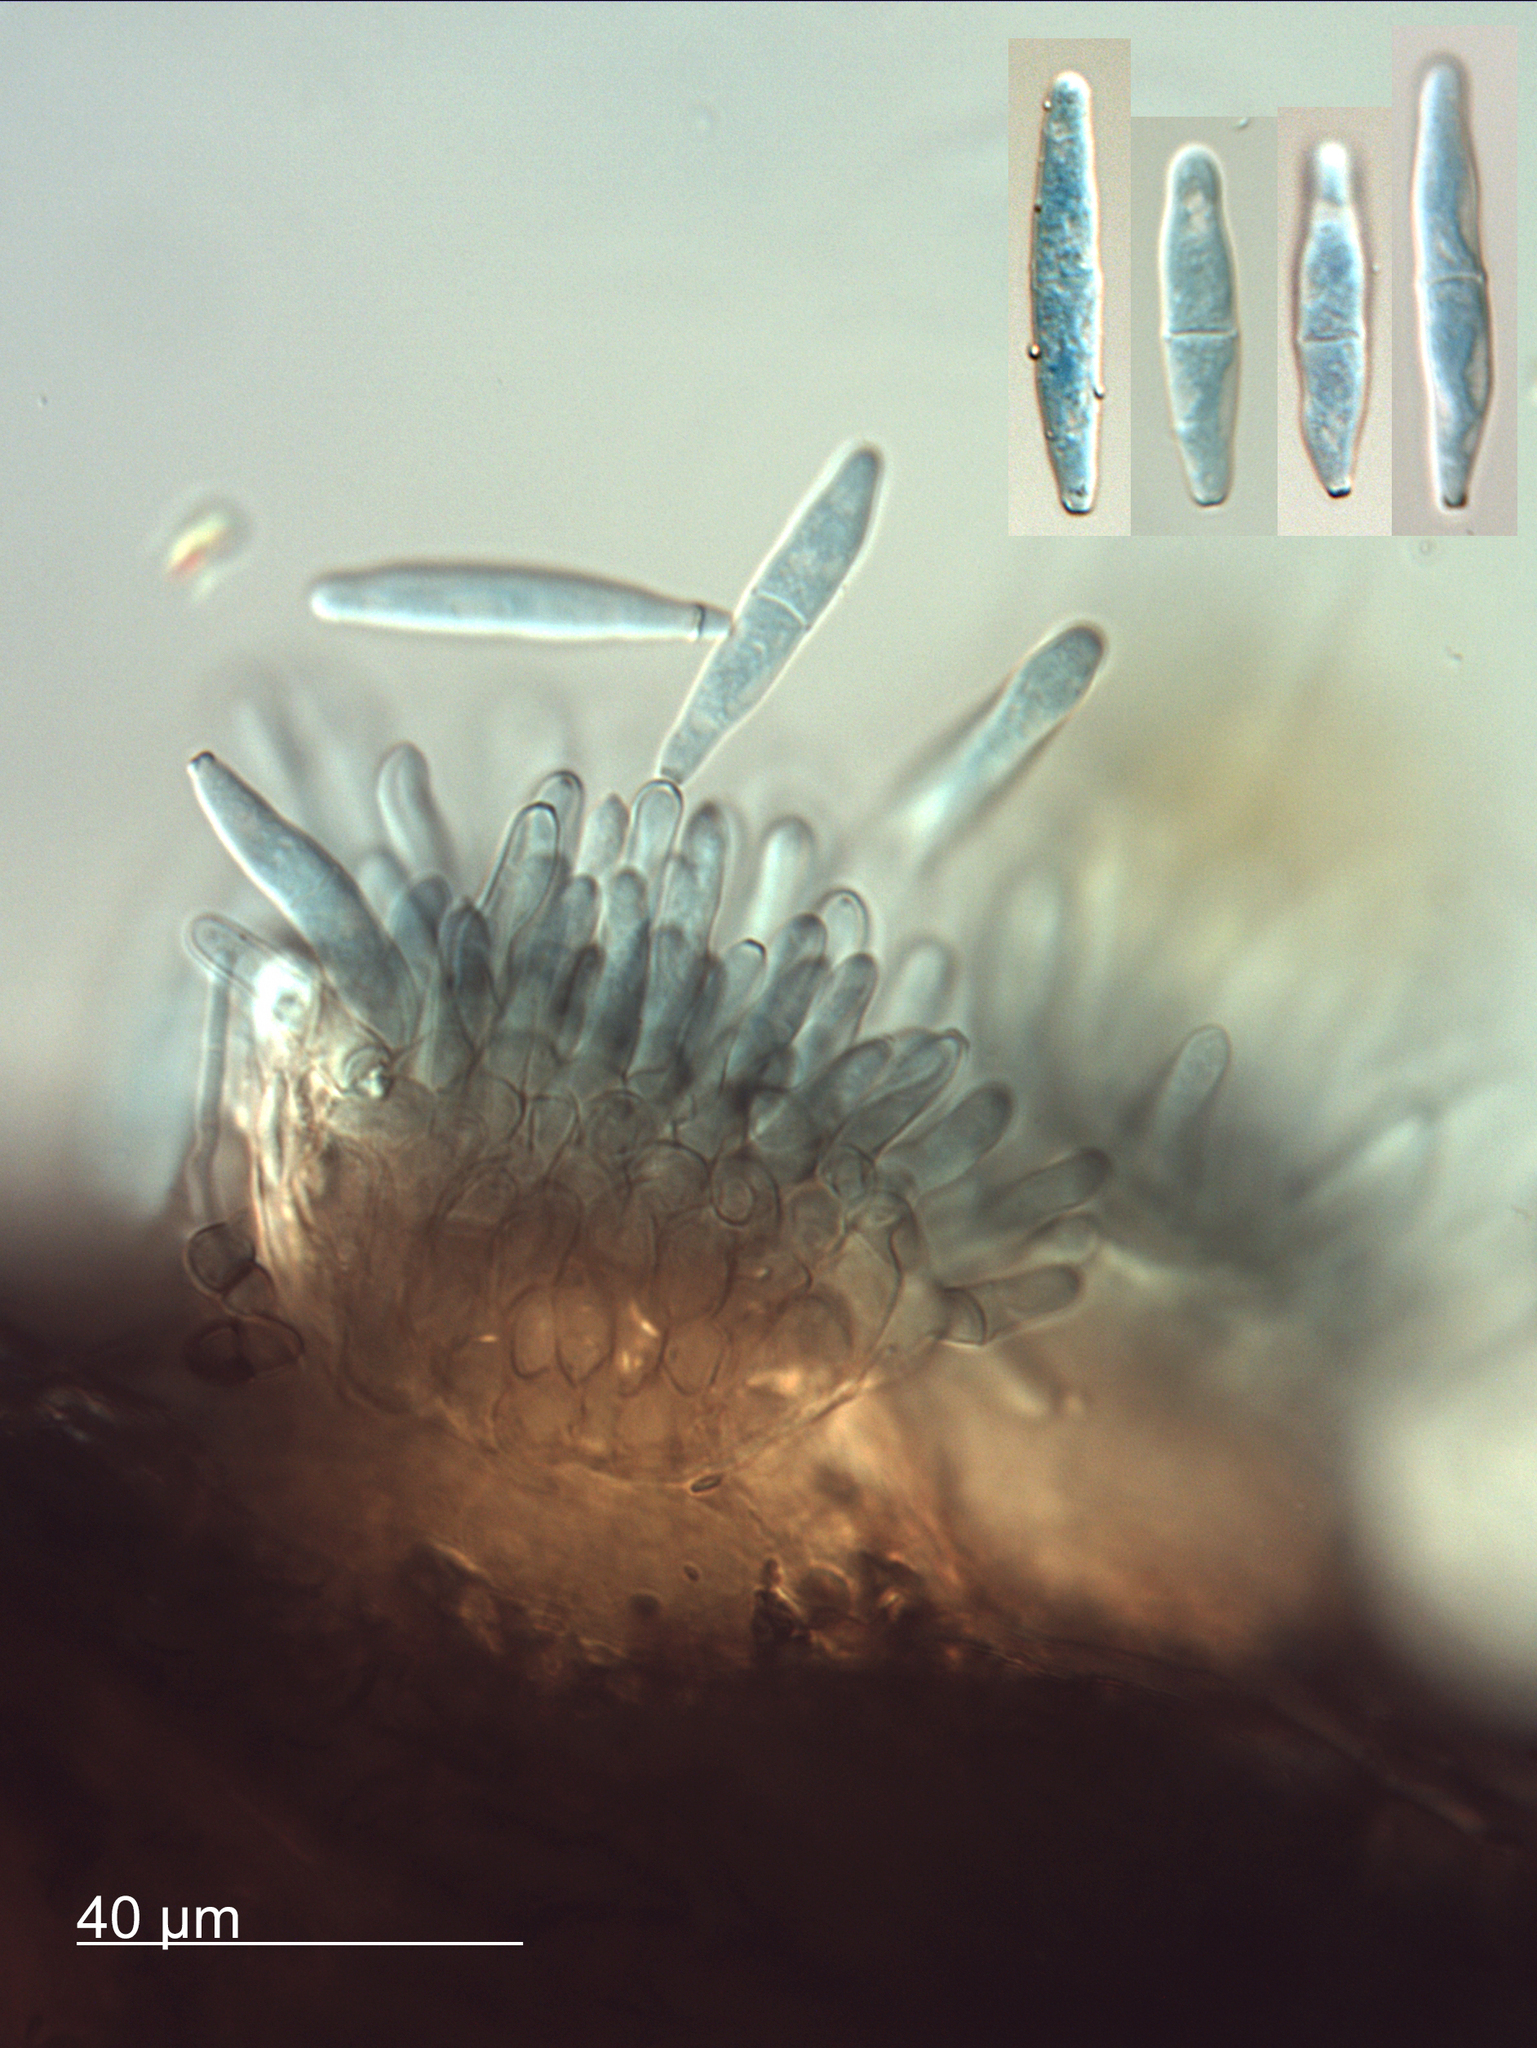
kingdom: Fungi
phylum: Ascomycota
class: Dothideomycetes
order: Mycosphaerellales
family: Mycosphaerellaceae
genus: Fusoidiella
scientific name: Fusoidiella anethi
